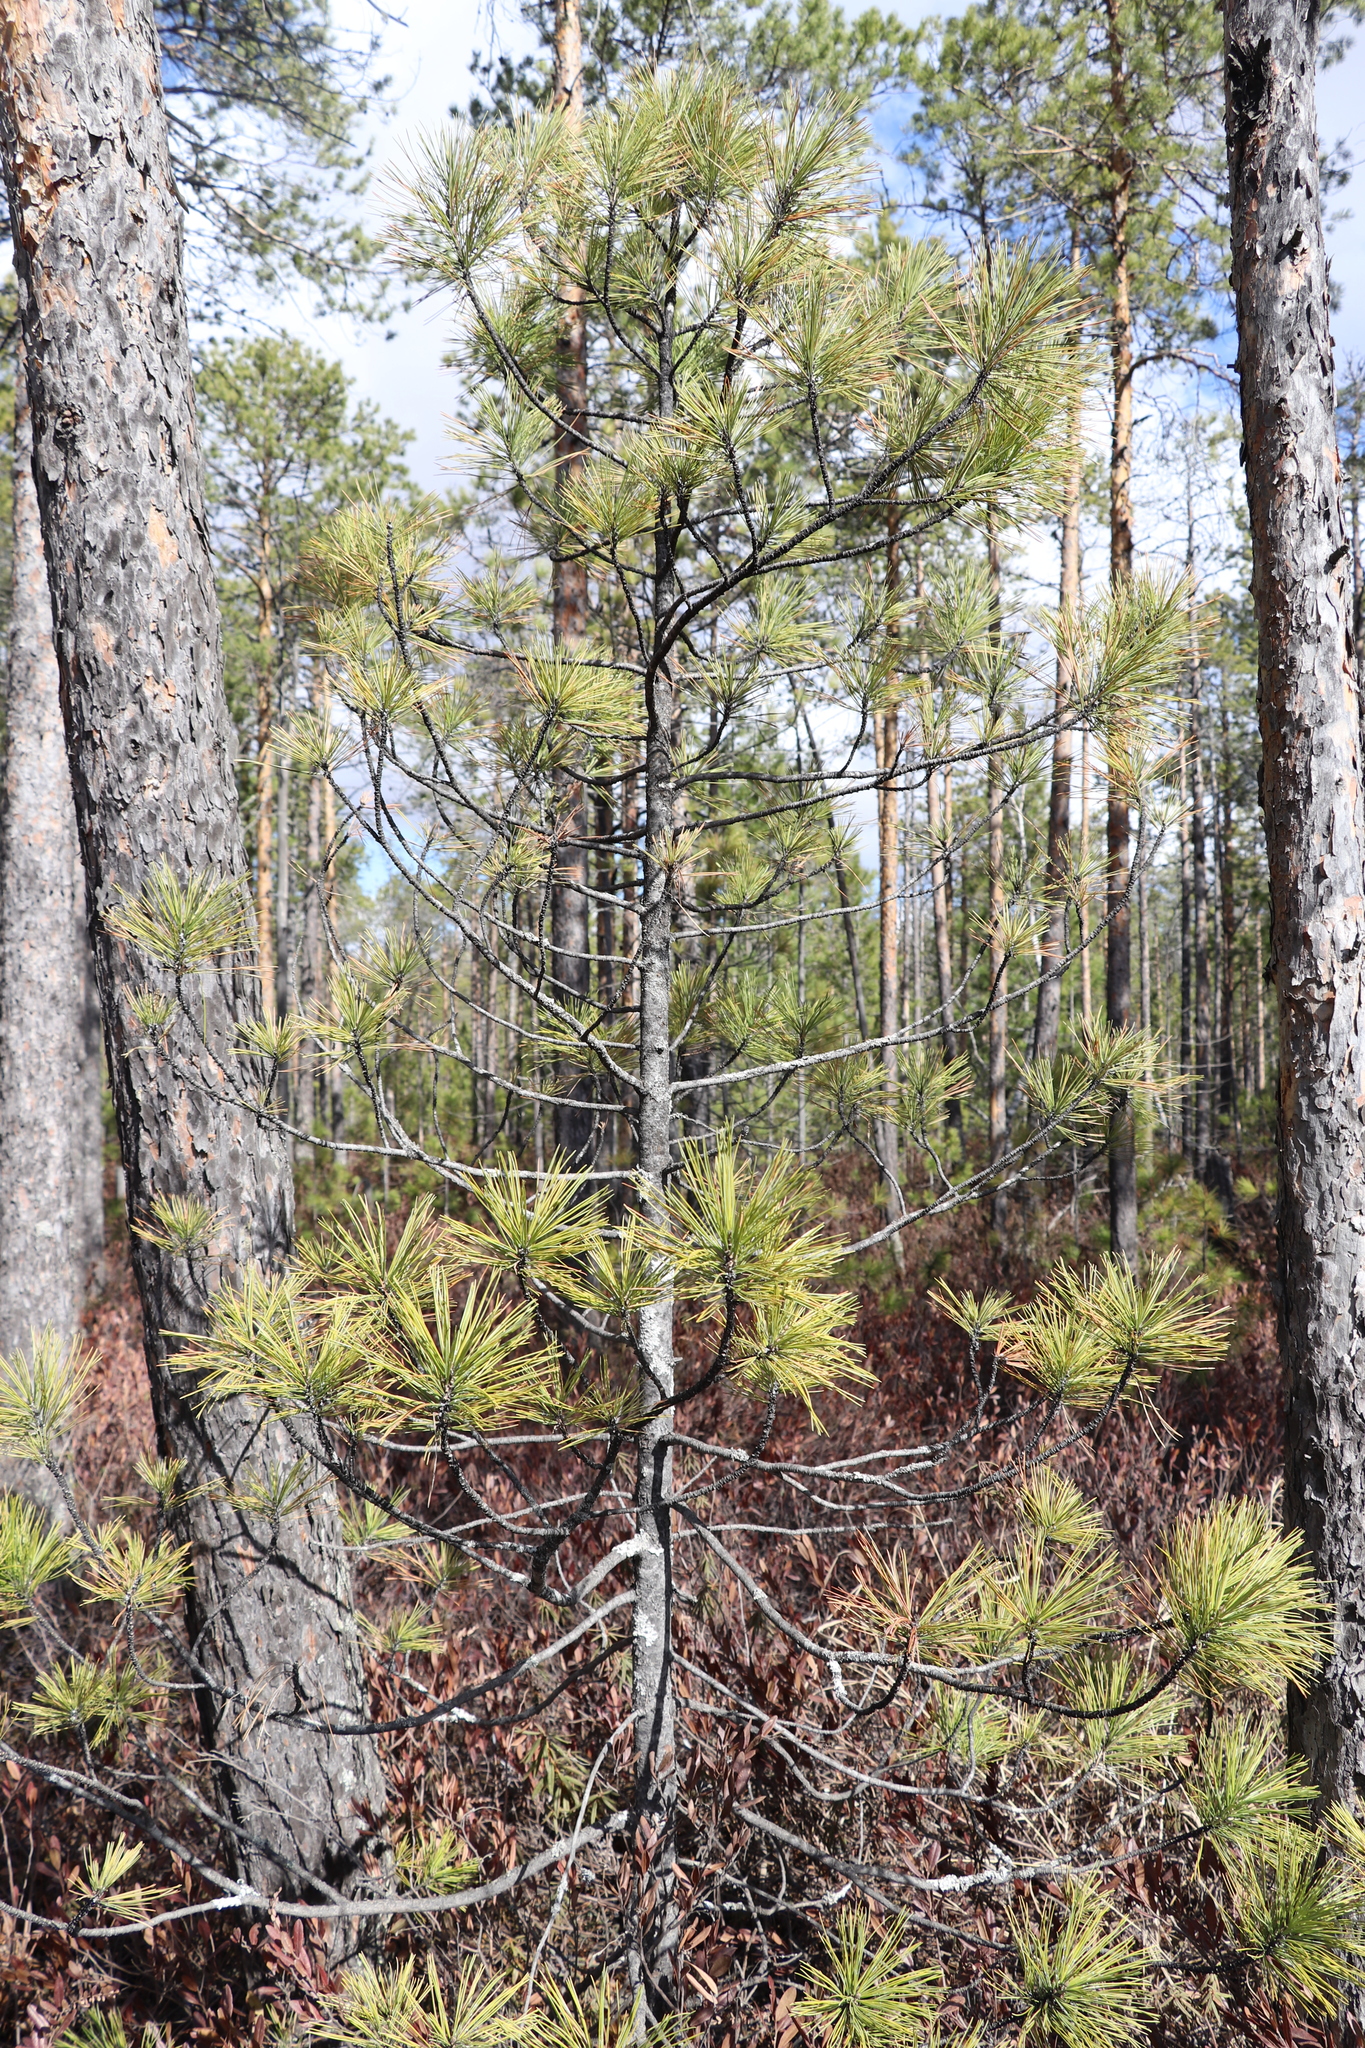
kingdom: Plantae
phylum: Tracheophyta
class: Pinopsida
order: Pinales
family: Pinaceae
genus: Pinus
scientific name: Pinus sibirica
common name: Siberian pine
